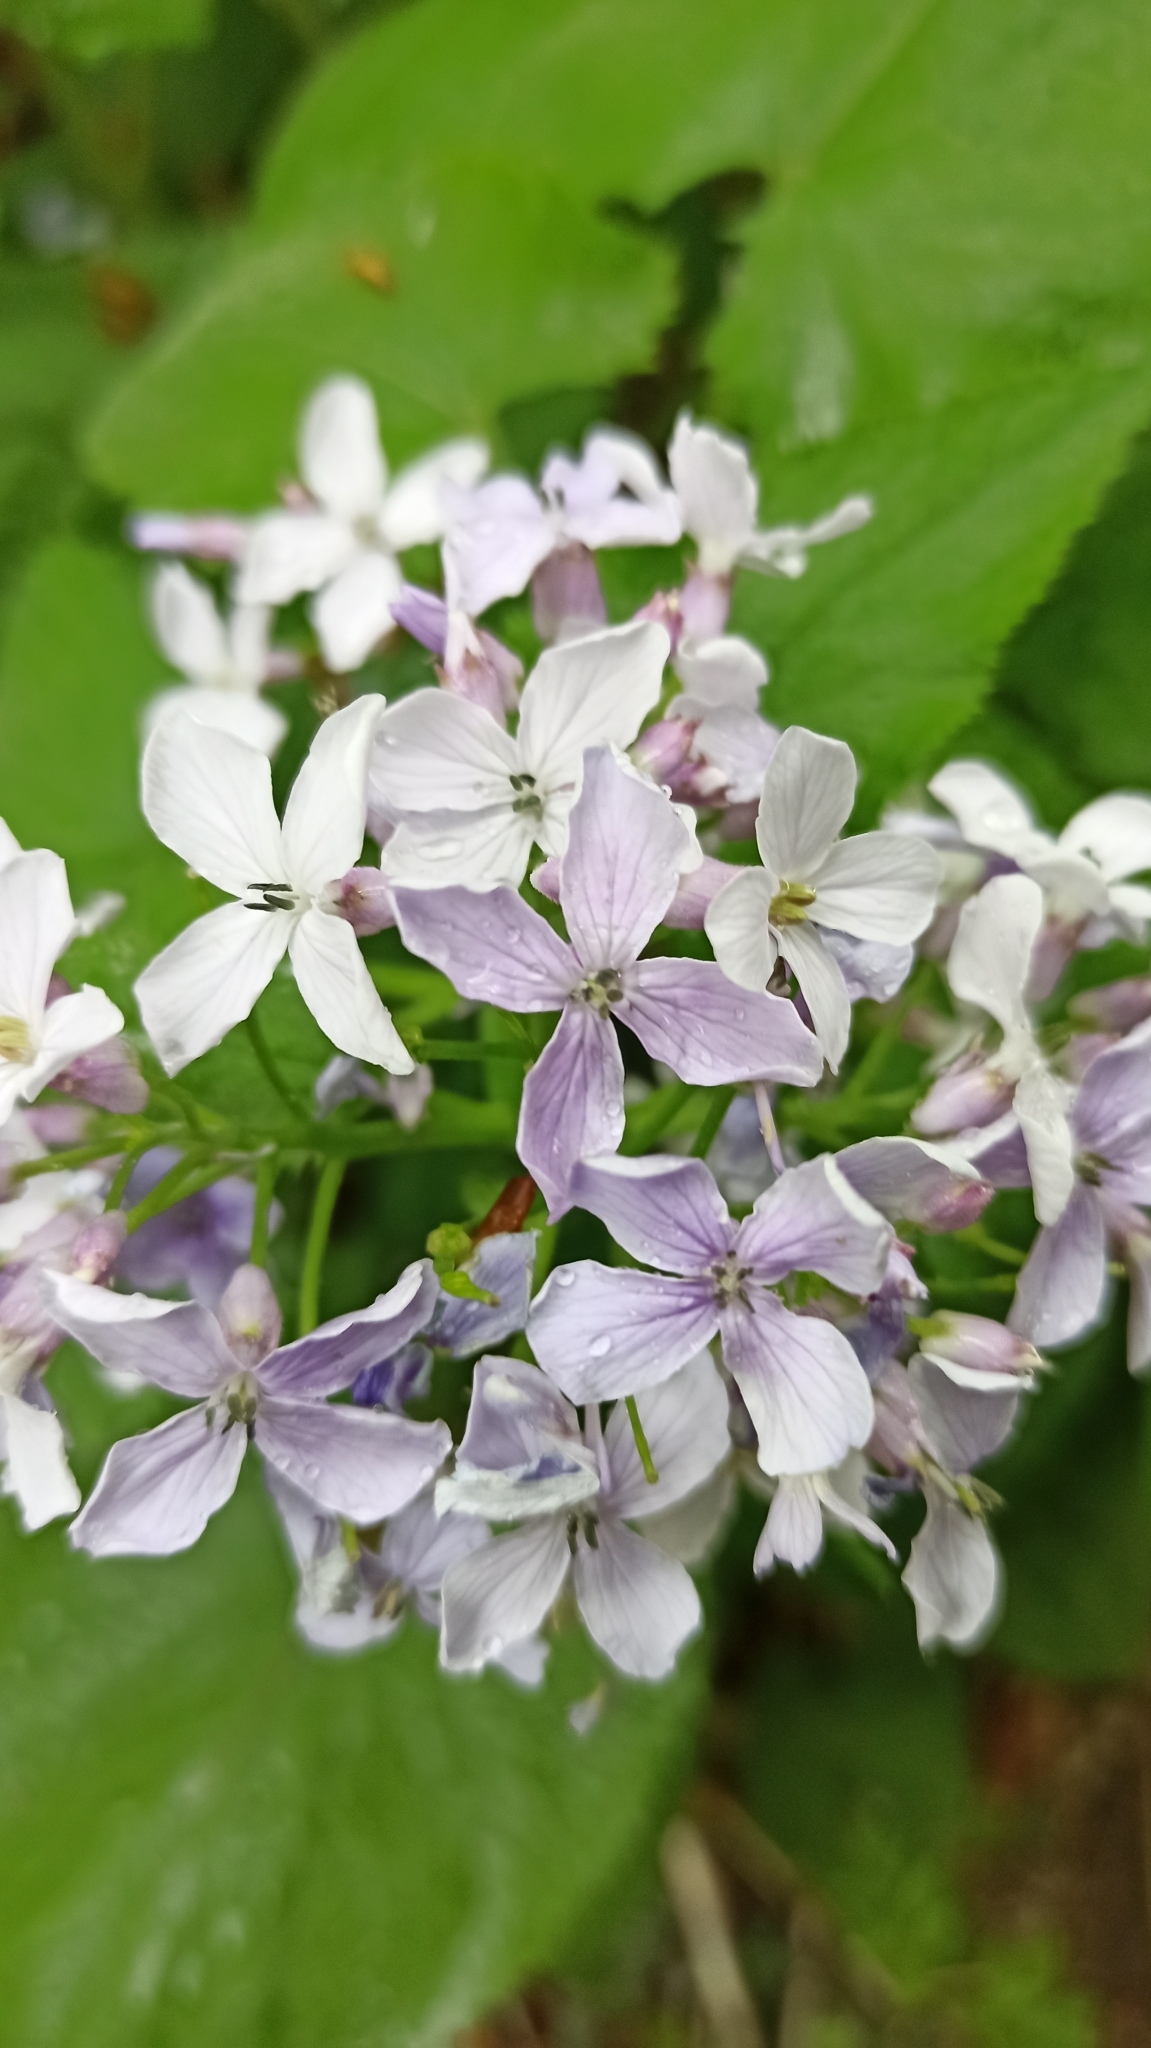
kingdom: Plantae
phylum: Tracheophyta
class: Magnoliopsida
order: Brassicales
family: Brassicaceae
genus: Lunaria
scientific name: Lunaria rediviva
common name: Perennial honesty
